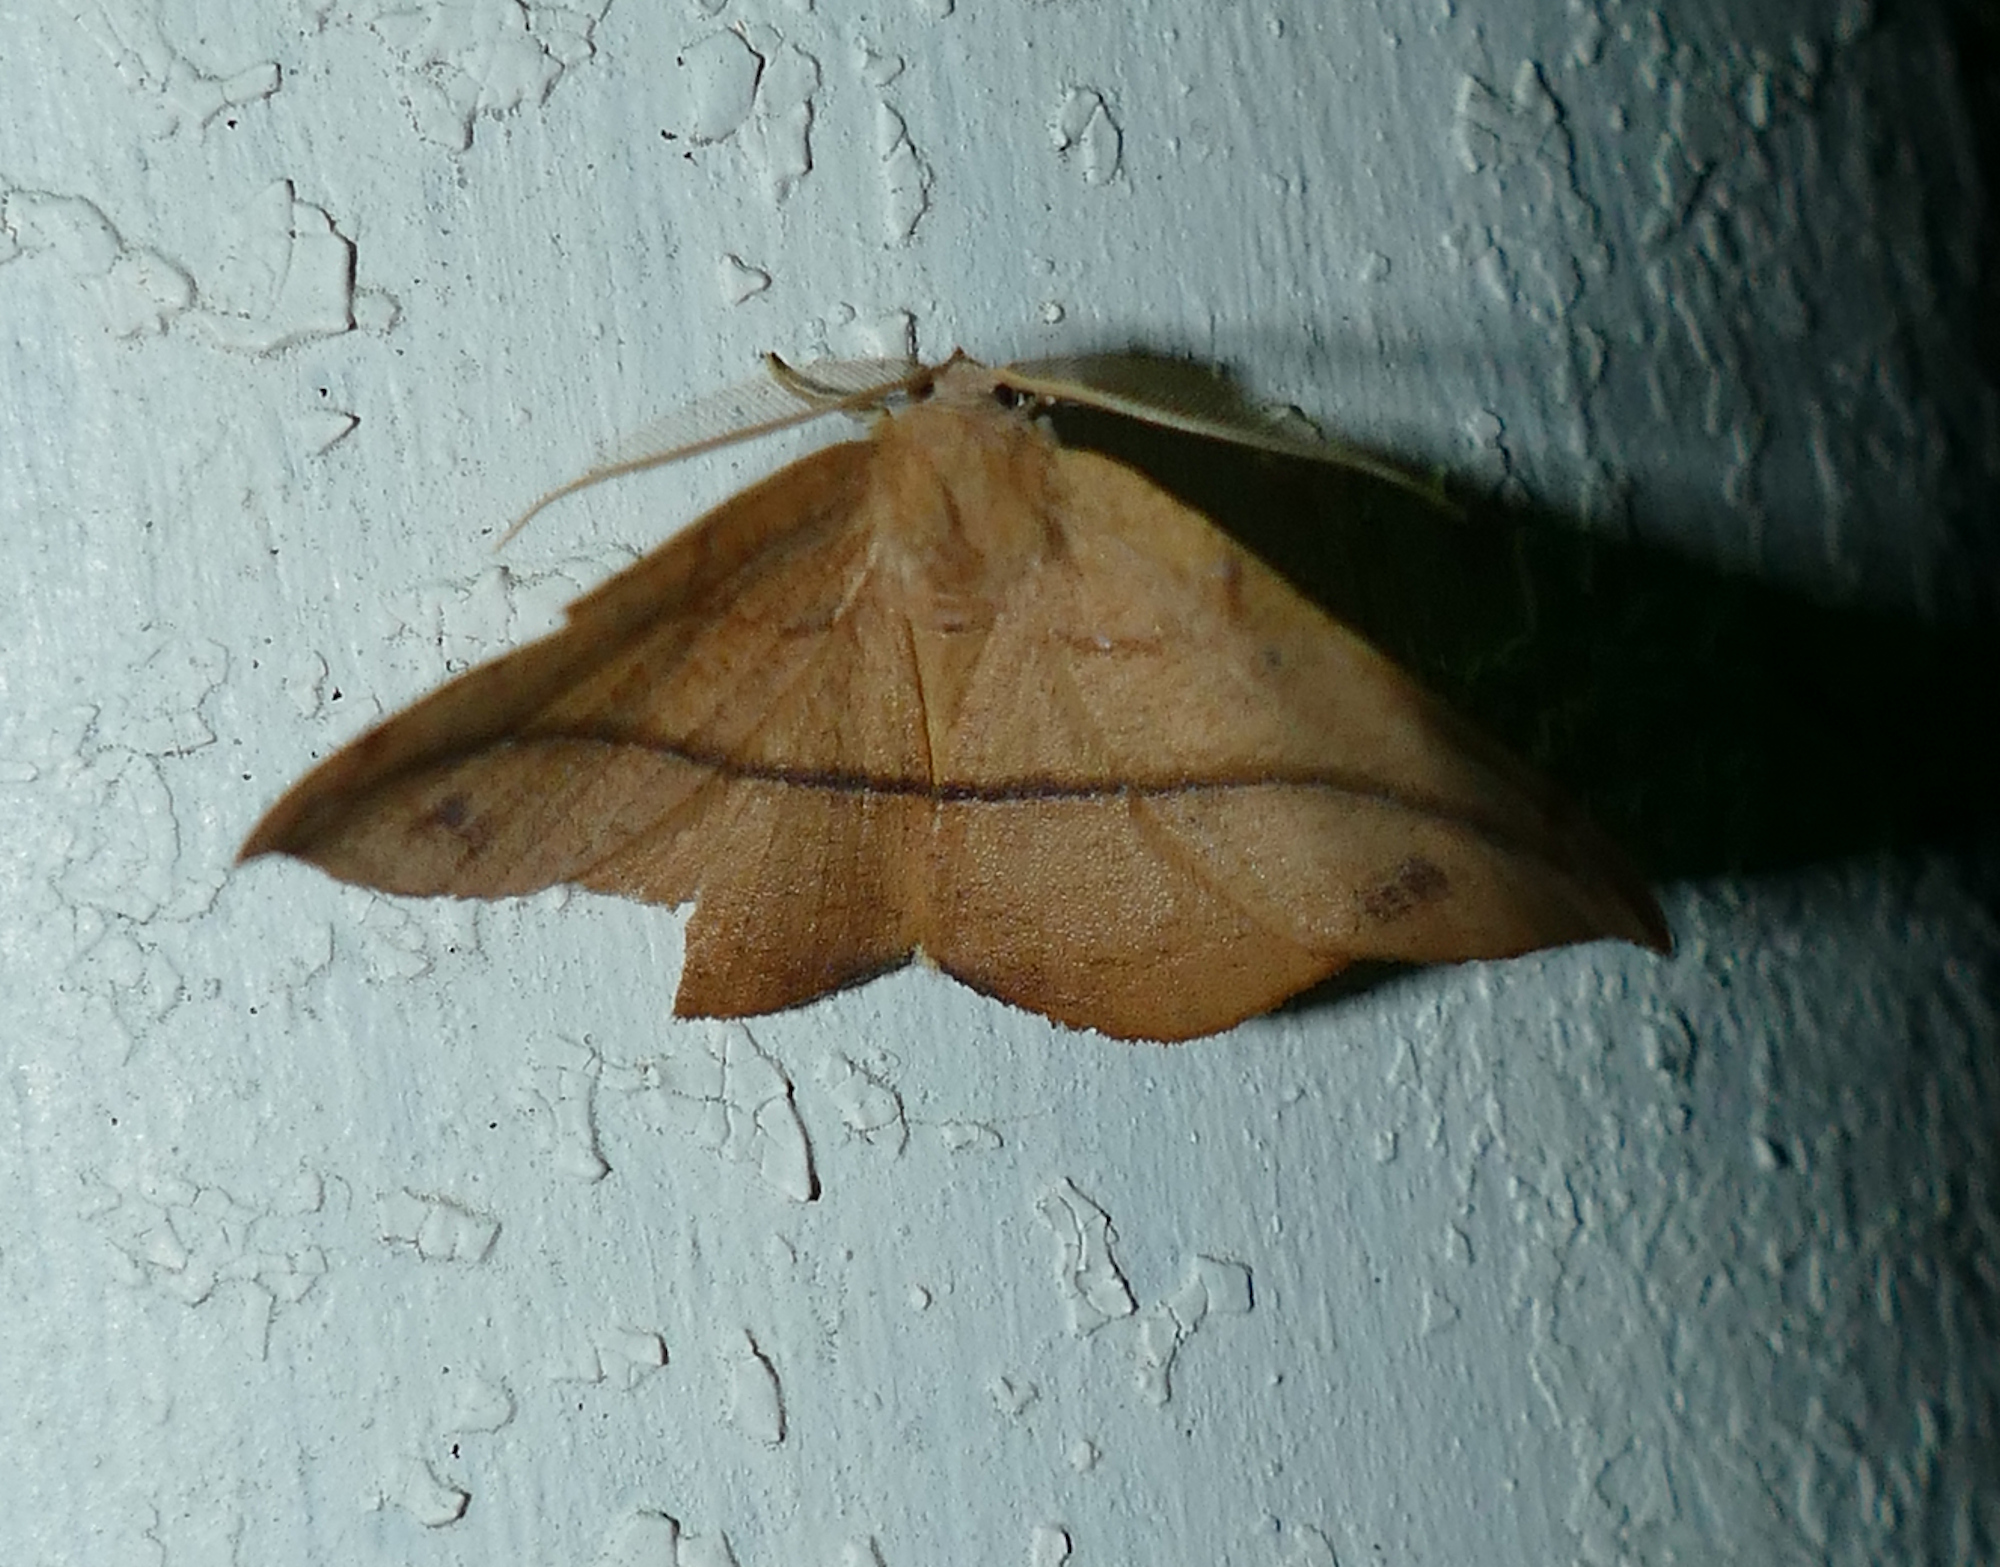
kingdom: Animalia
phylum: Arthropoda
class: Insecta
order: Lepidoptera
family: Geometridae
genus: Patalene
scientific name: Patalene olyzonaria
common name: Juniper geometer moth
